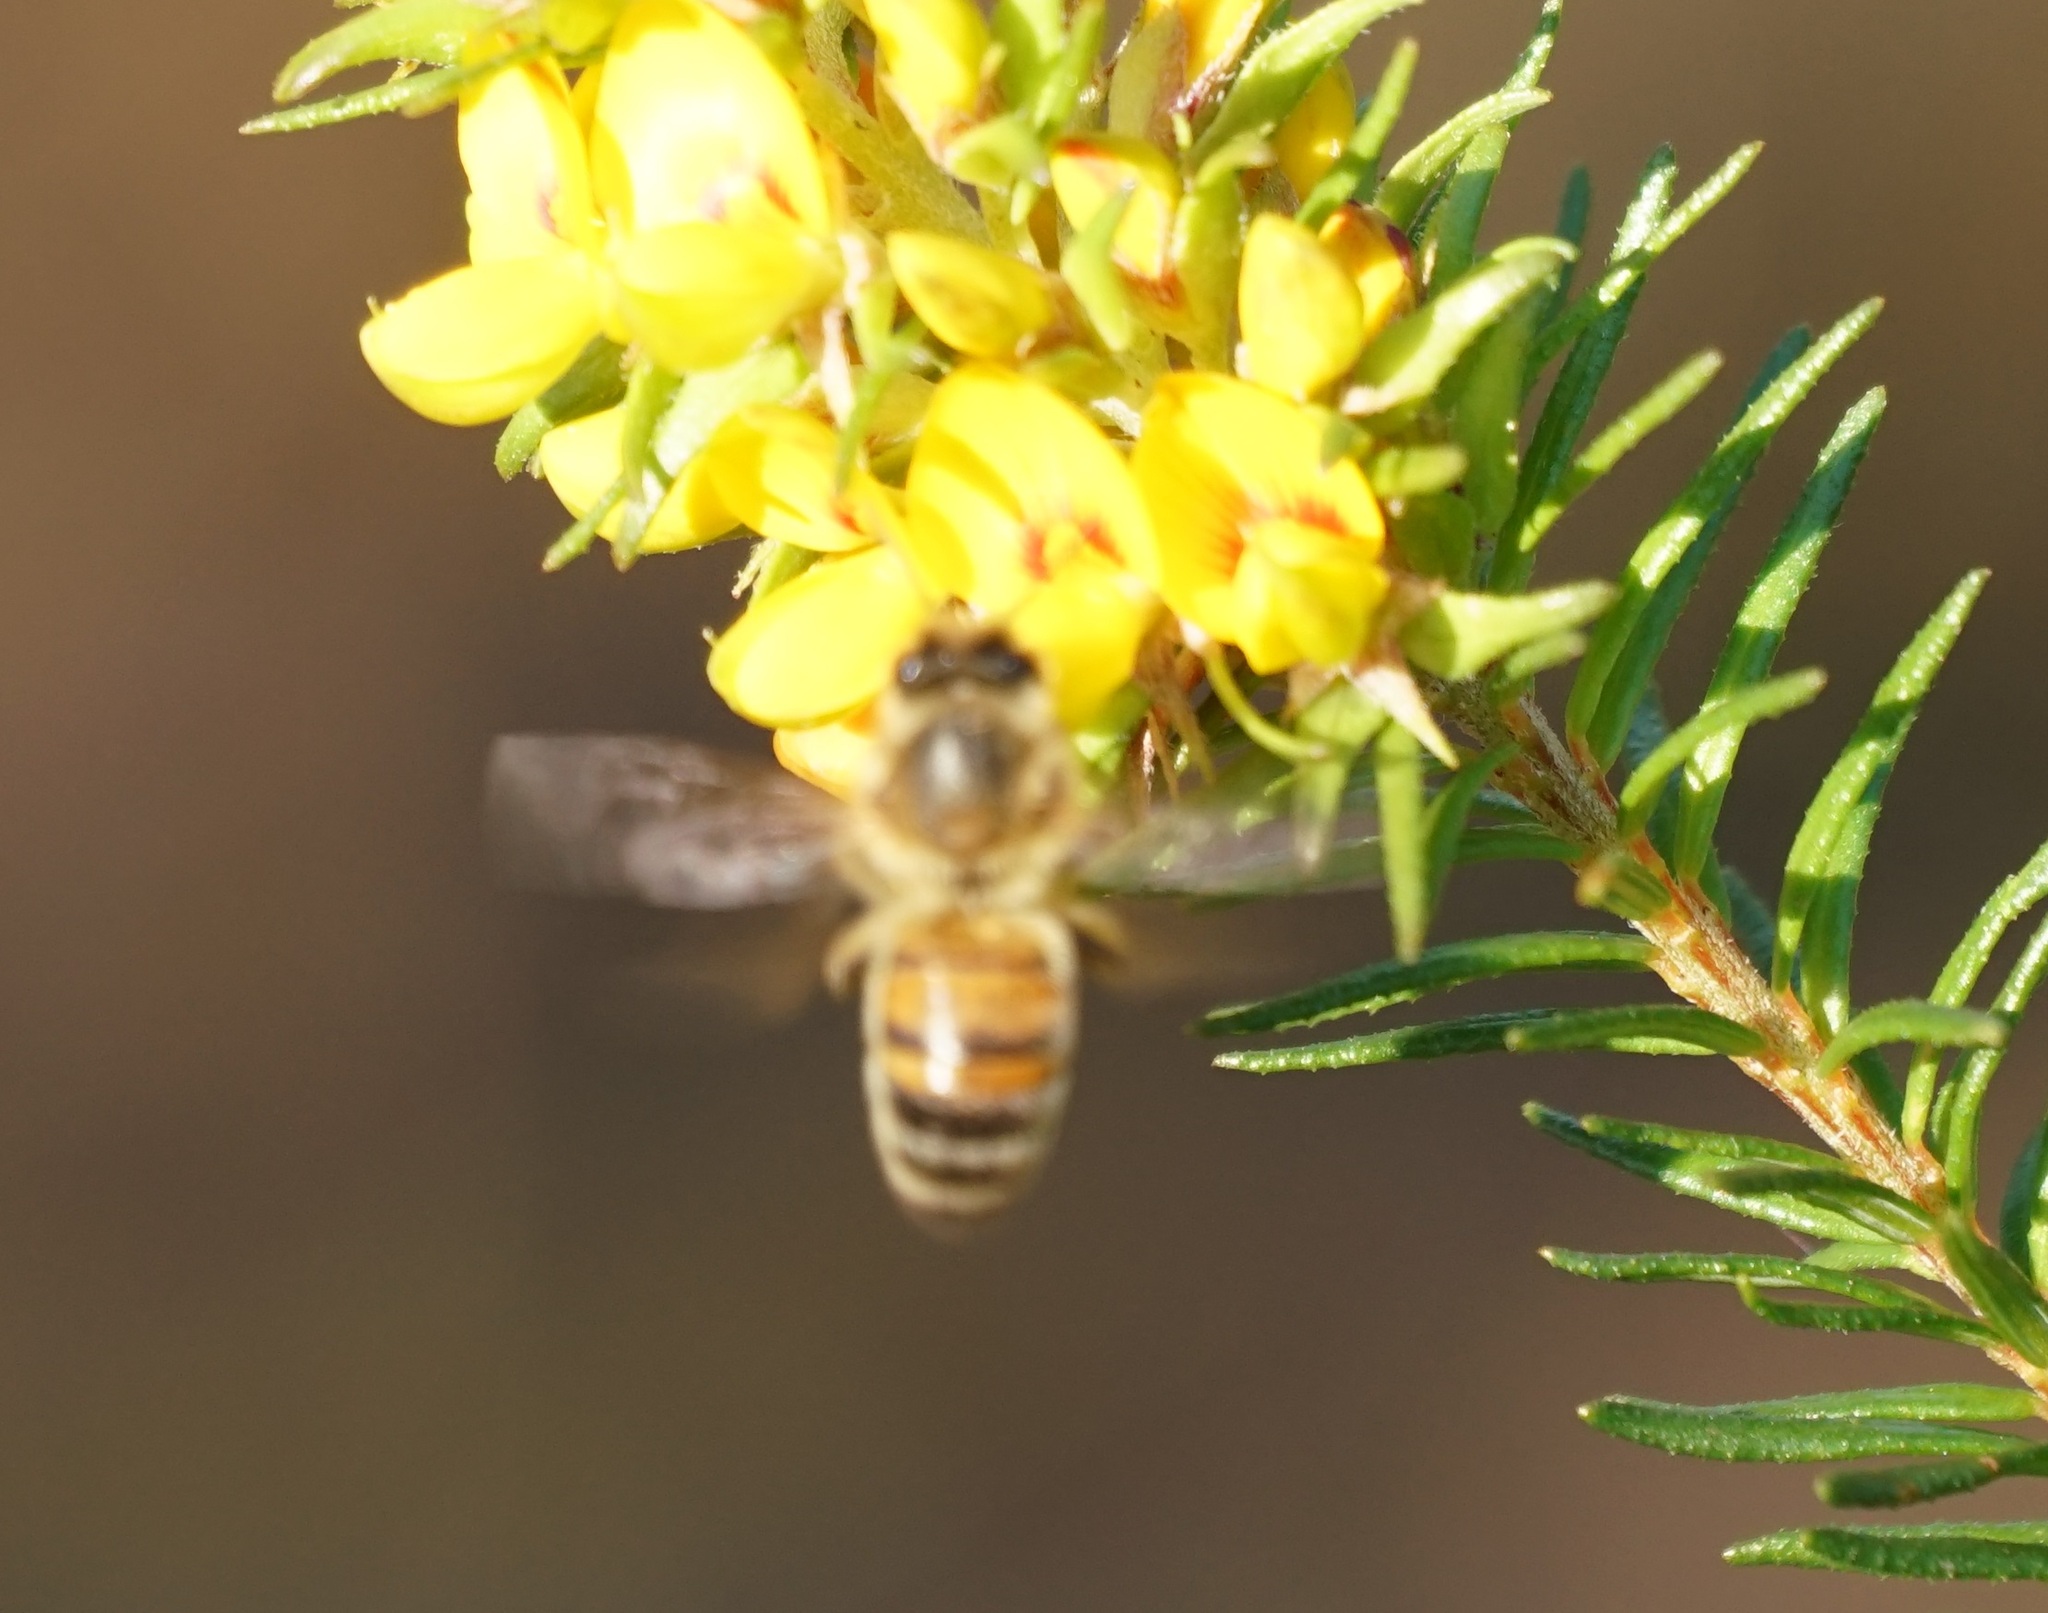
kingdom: Animalia
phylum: Arthropoda
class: Insecta
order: Hymenoptera
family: Apidae
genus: Apis
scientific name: Apis mellifera
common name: Honey bee
